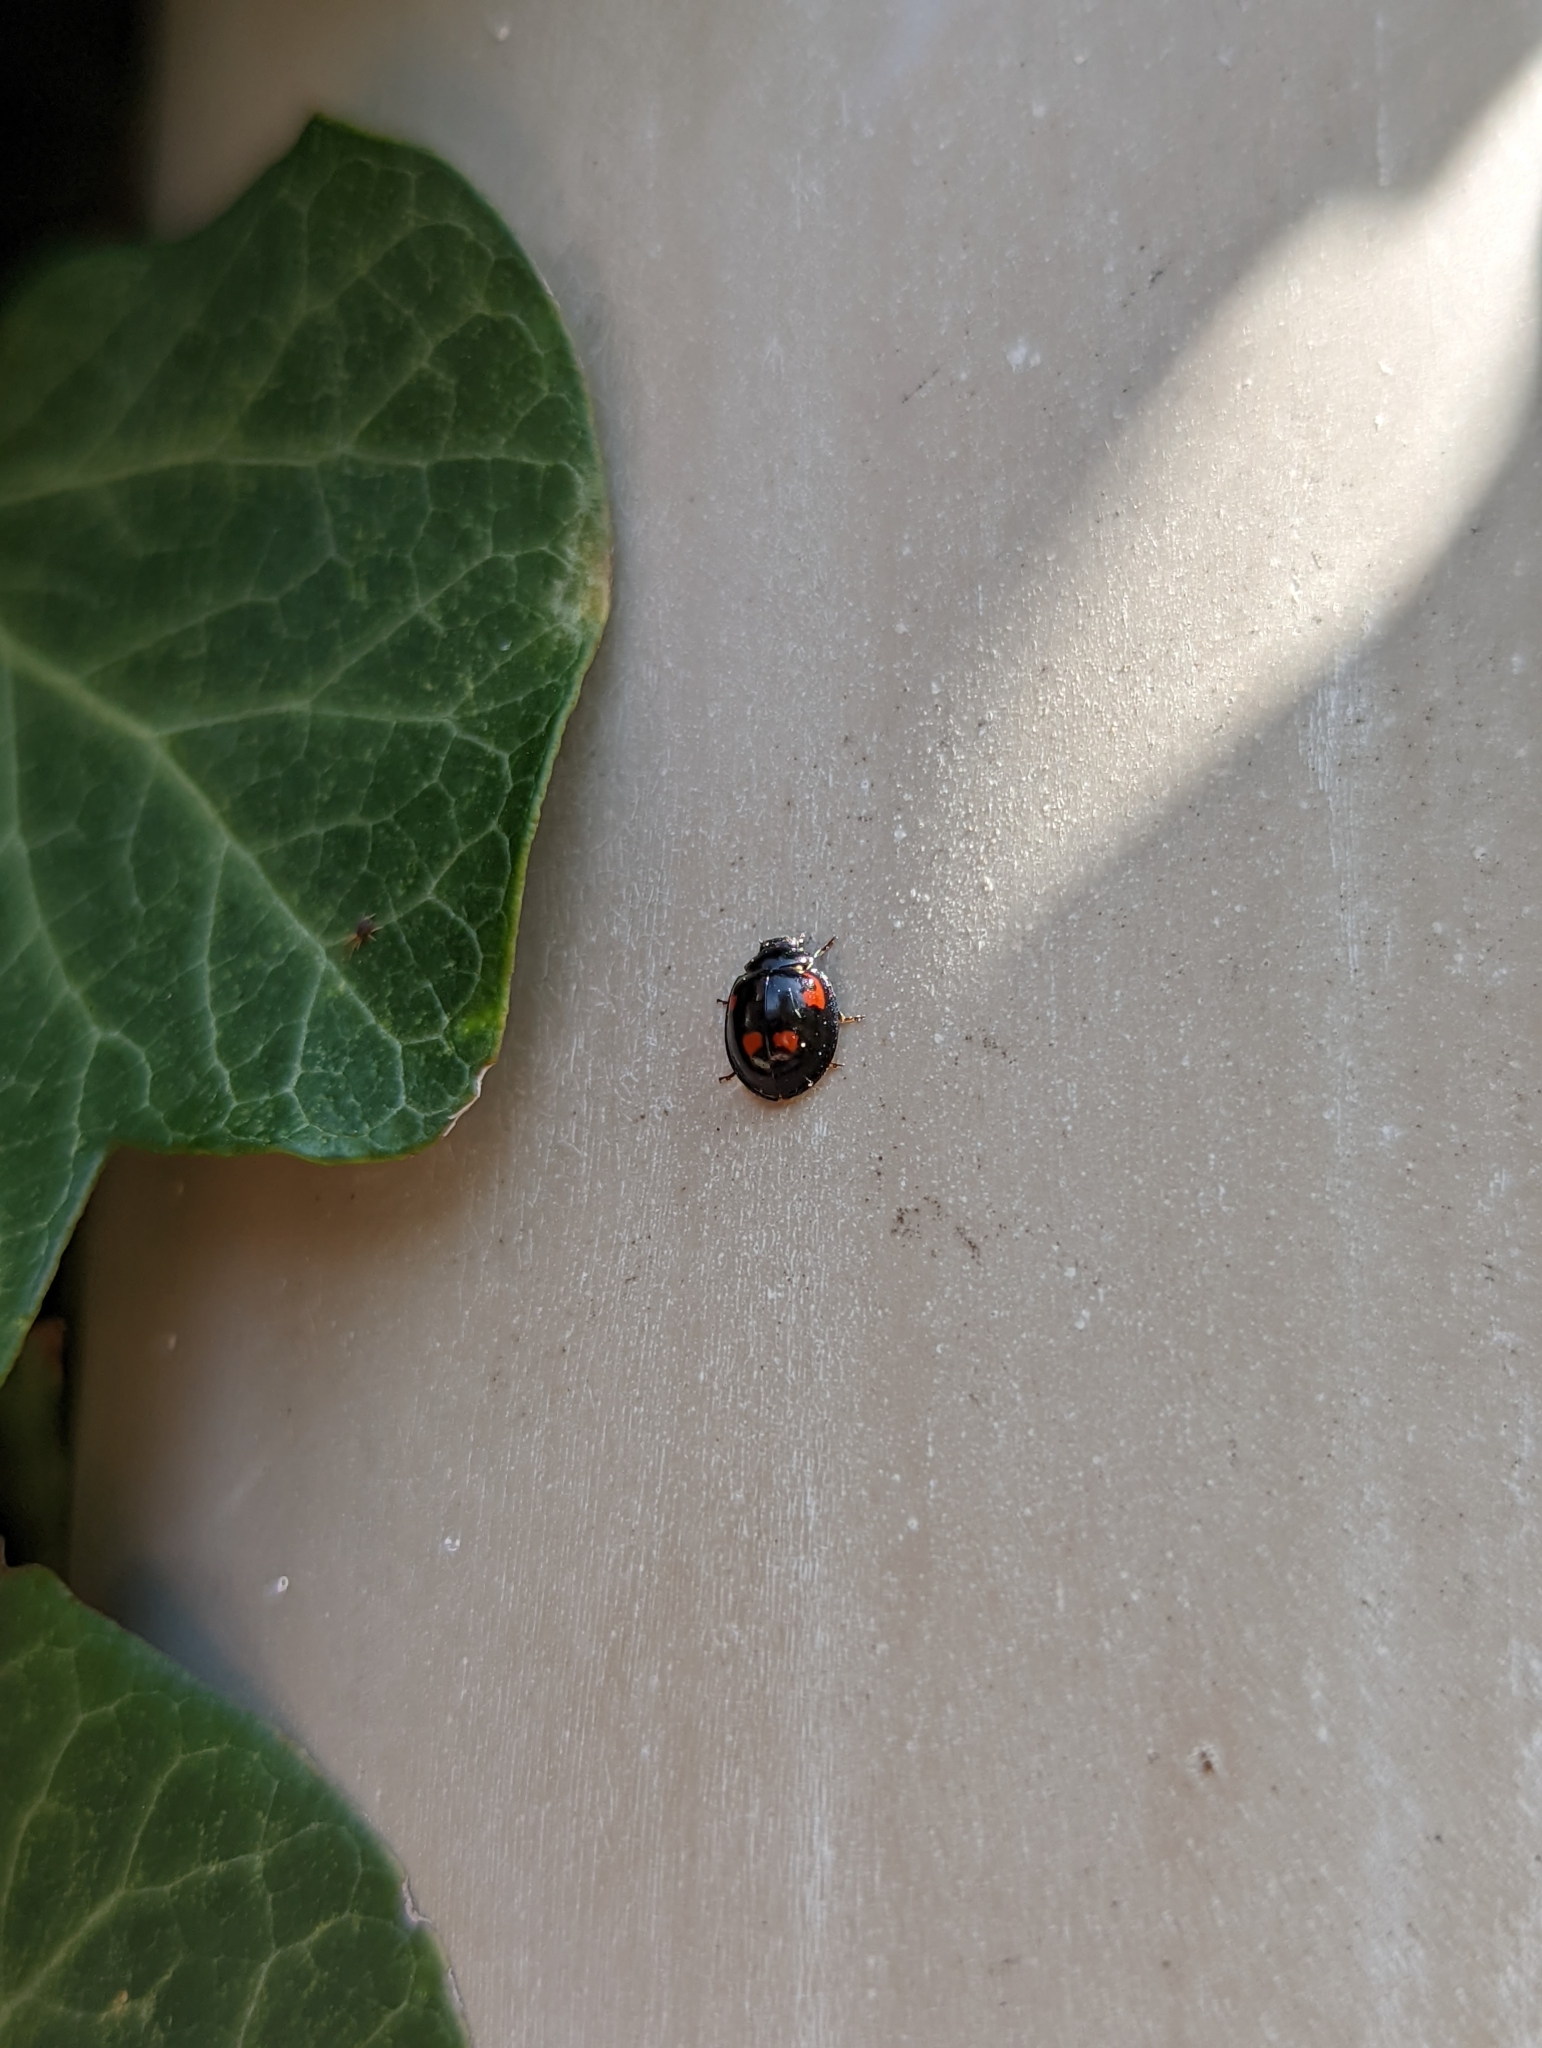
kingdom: Animalia
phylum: Arthropoda
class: Insecta
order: Coleoptera
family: Coccinellidae
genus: Brumus
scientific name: Brumus quadripustulatus
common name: Ladybird beetle
